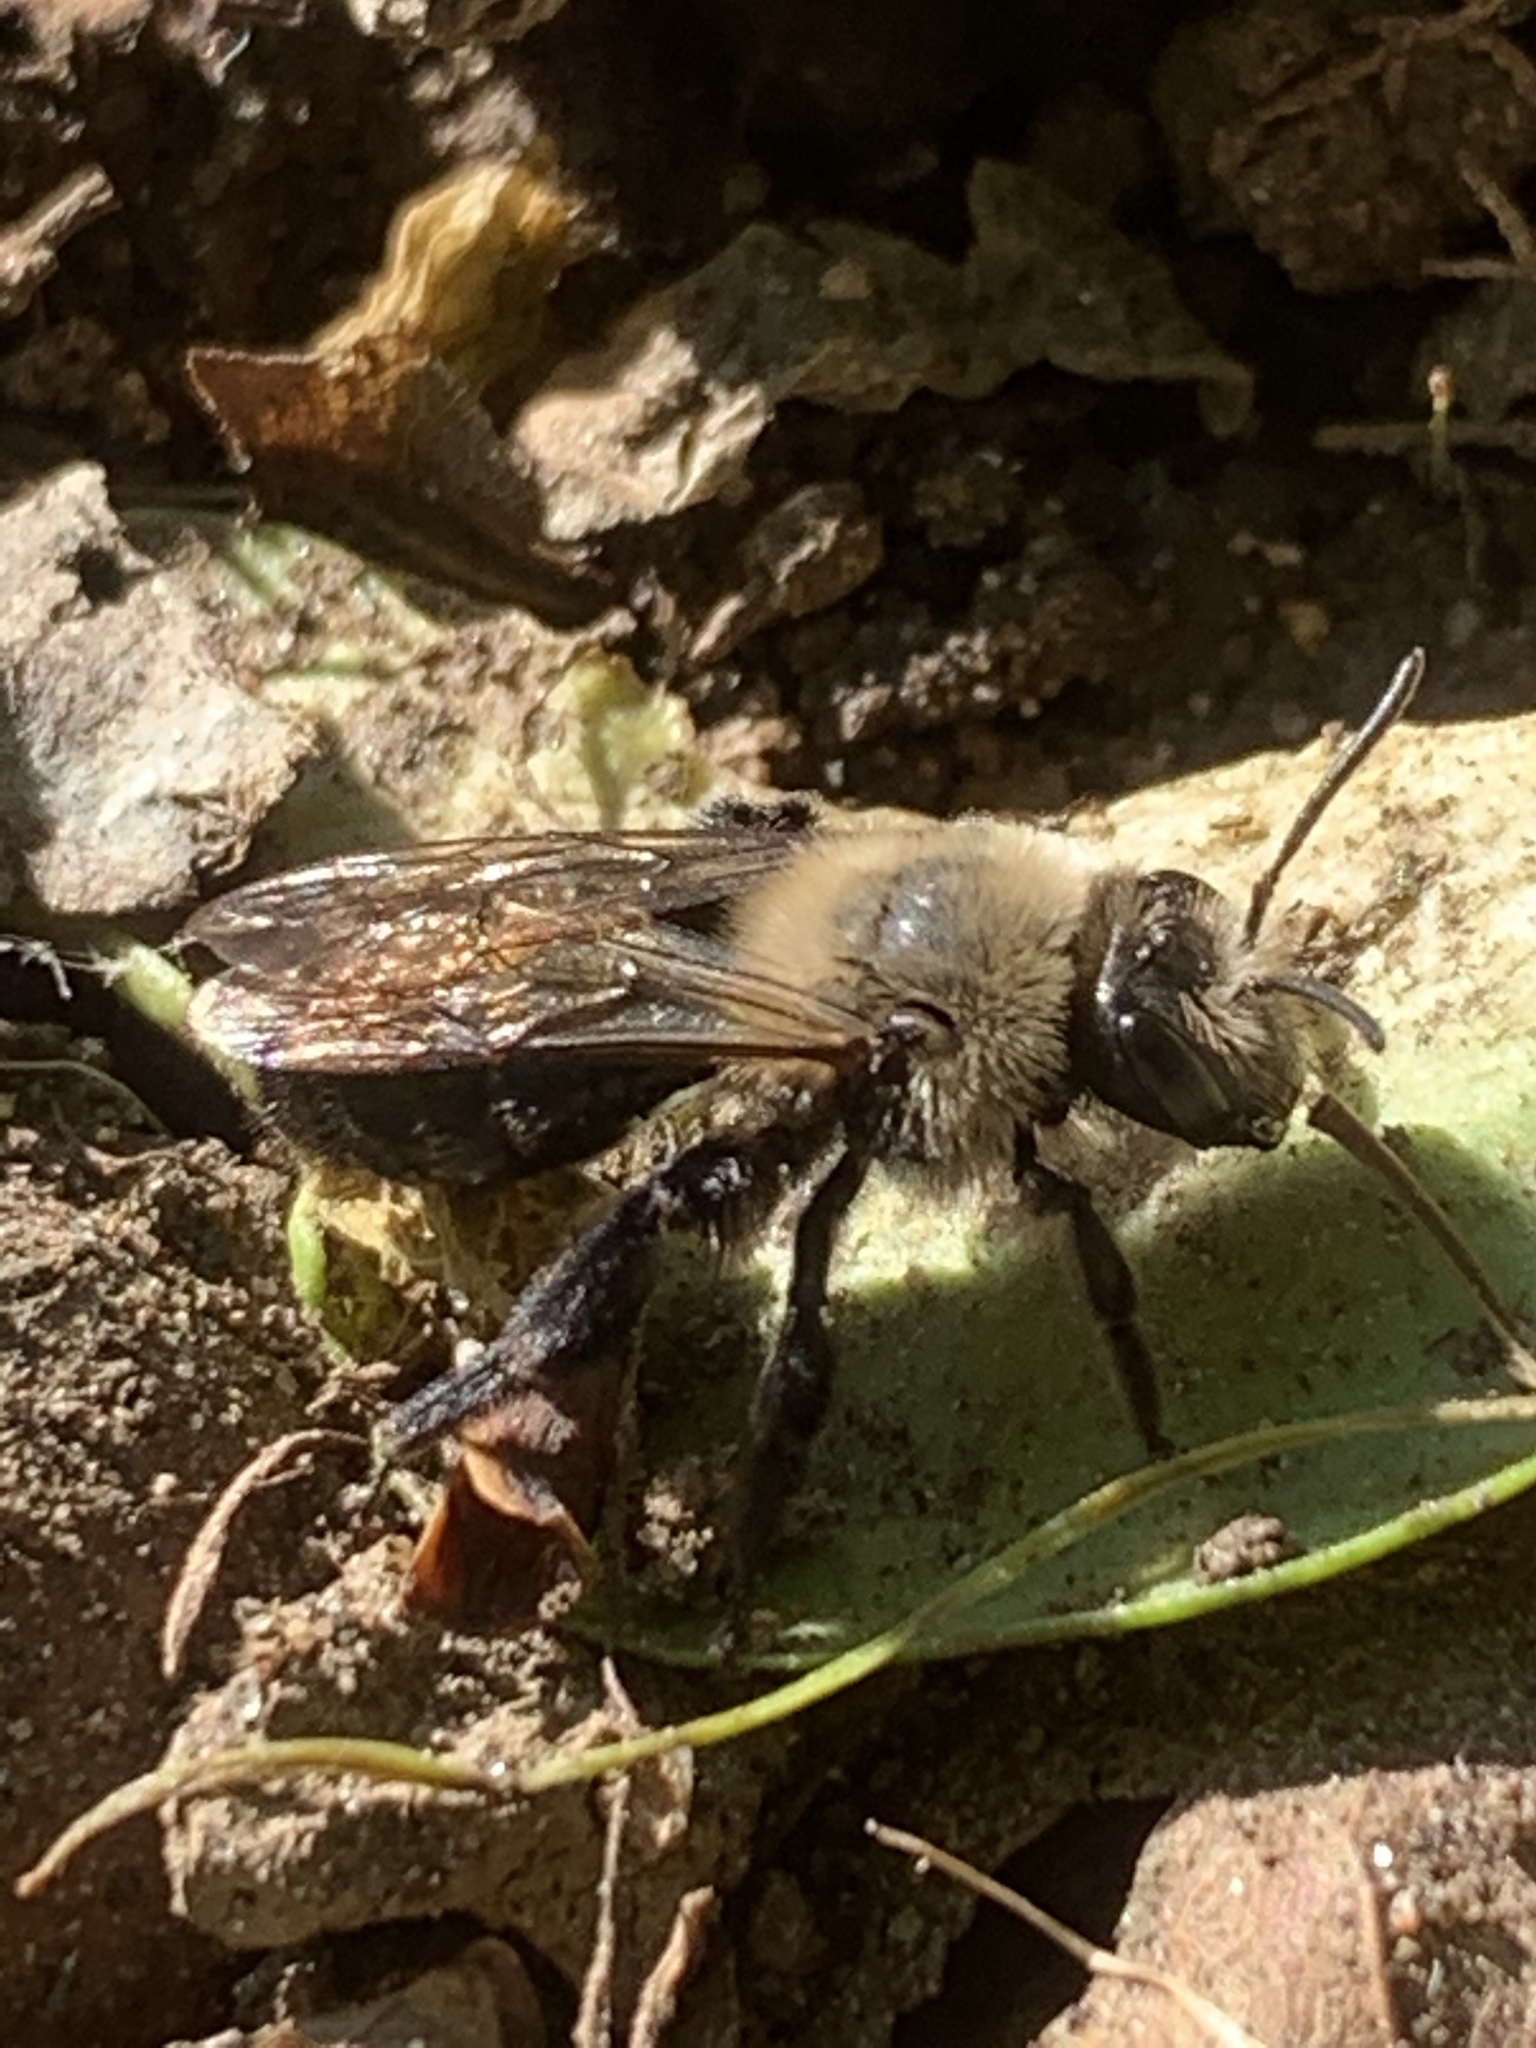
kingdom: Animalia
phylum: Arthropoda
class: Insecta
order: Hymenoptera
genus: Melandrena
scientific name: Melandrena
